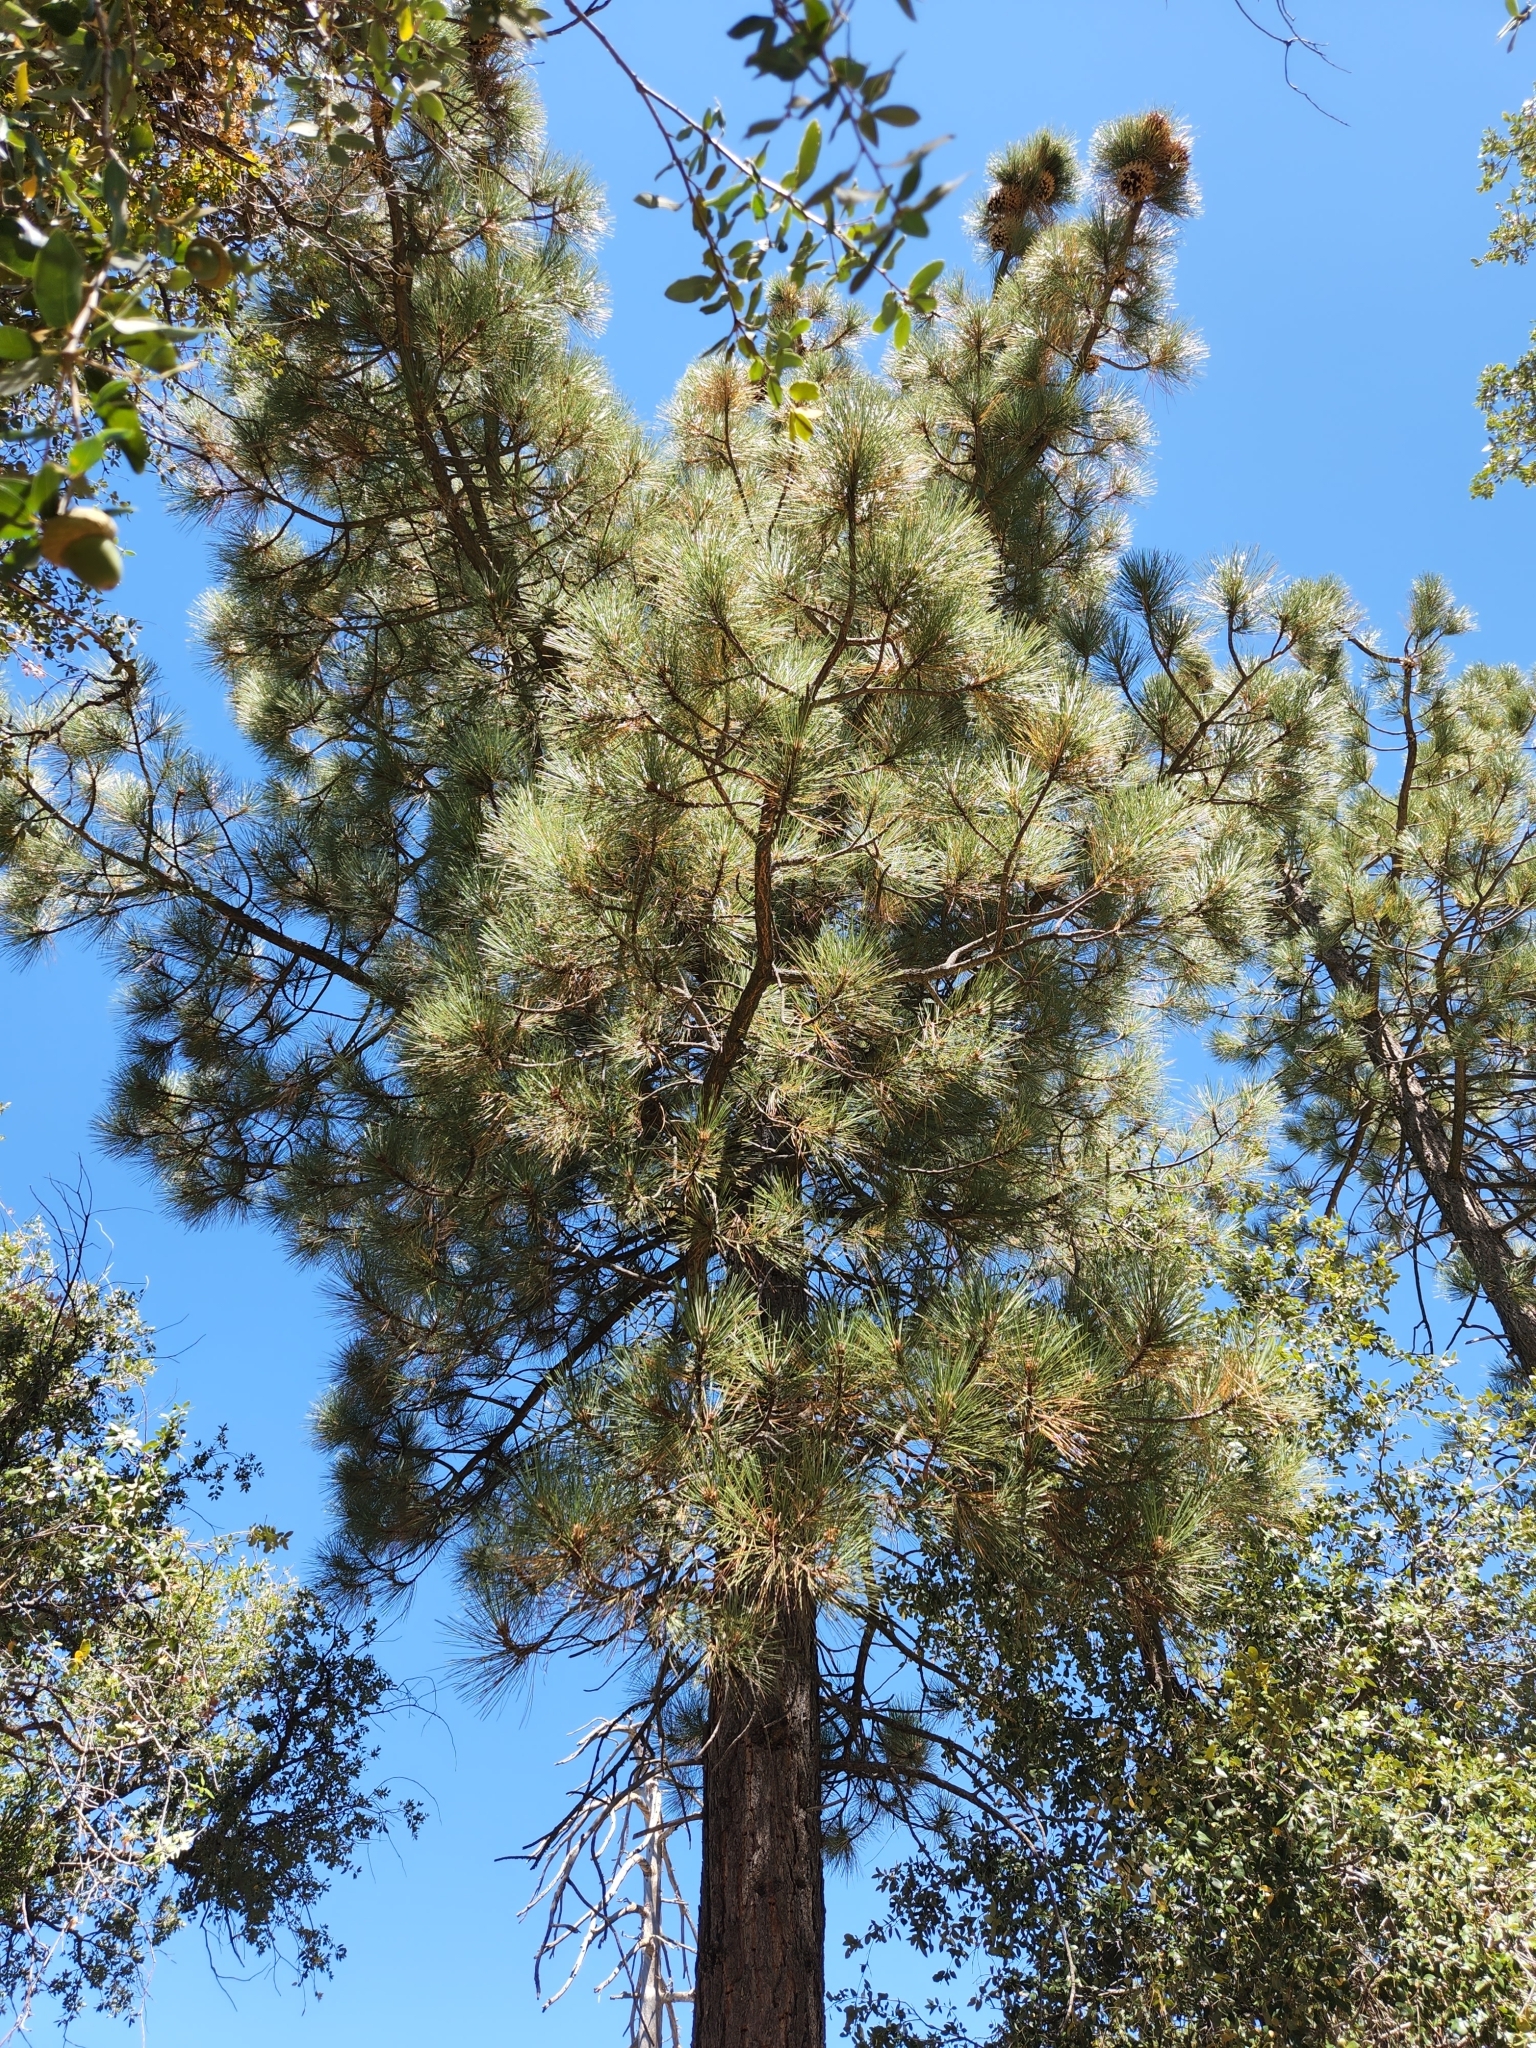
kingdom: Plantae
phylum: Tracheophyta
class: Pinopsida
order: Pinales
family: Pinaceae
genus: Pinus
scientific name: Pinus coulteri
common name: Coulter pine
